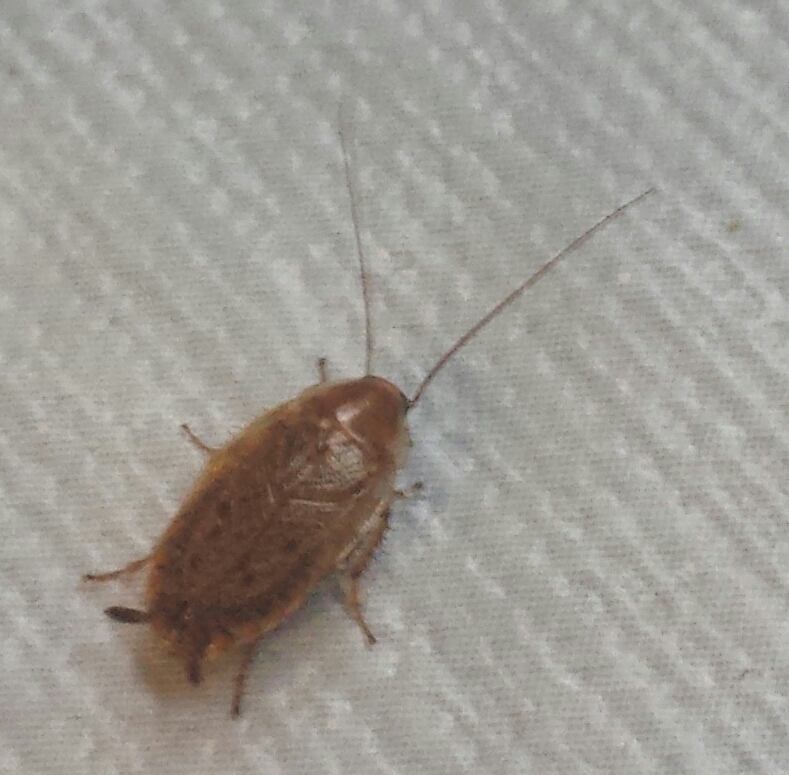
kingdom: Animalia
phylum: Arthropoda
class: Insecta
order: Blattodea
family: Ectobiidae
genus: Ectobius
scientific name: Ectobius lapponicus
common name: Dusky cockroach
